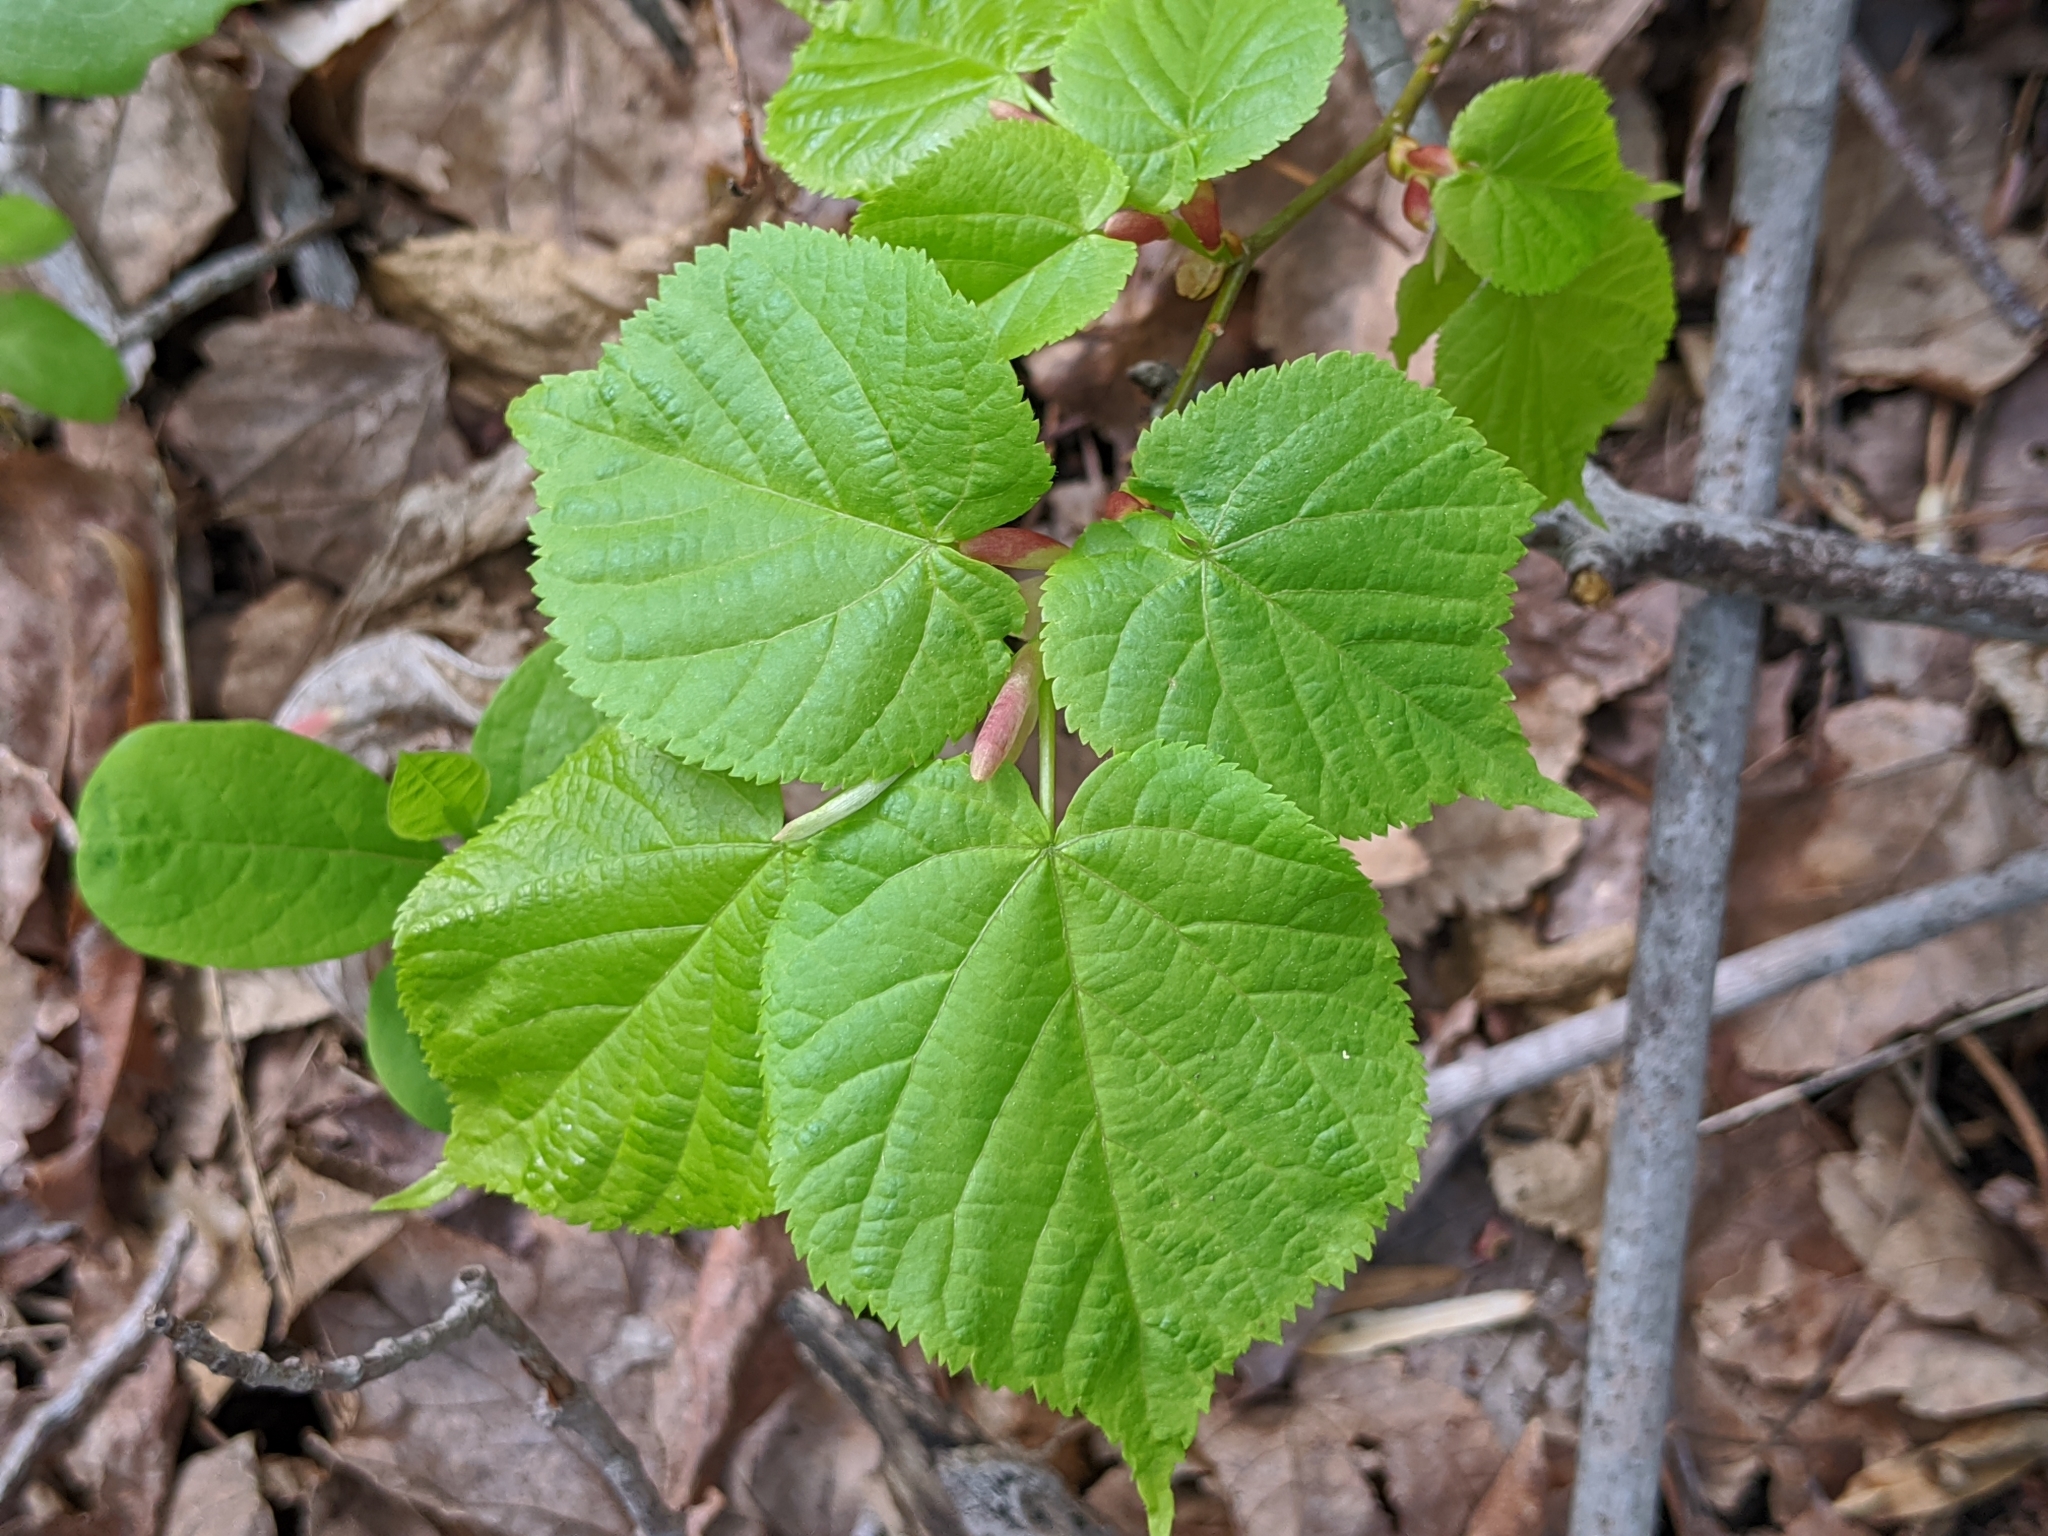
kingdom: Plantae
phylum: Tracheophyta
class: Magnoliopsida
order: Malvales
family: Malvaceae
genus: Tilia
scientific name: Tilia cordata
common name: Small-leaved lime
